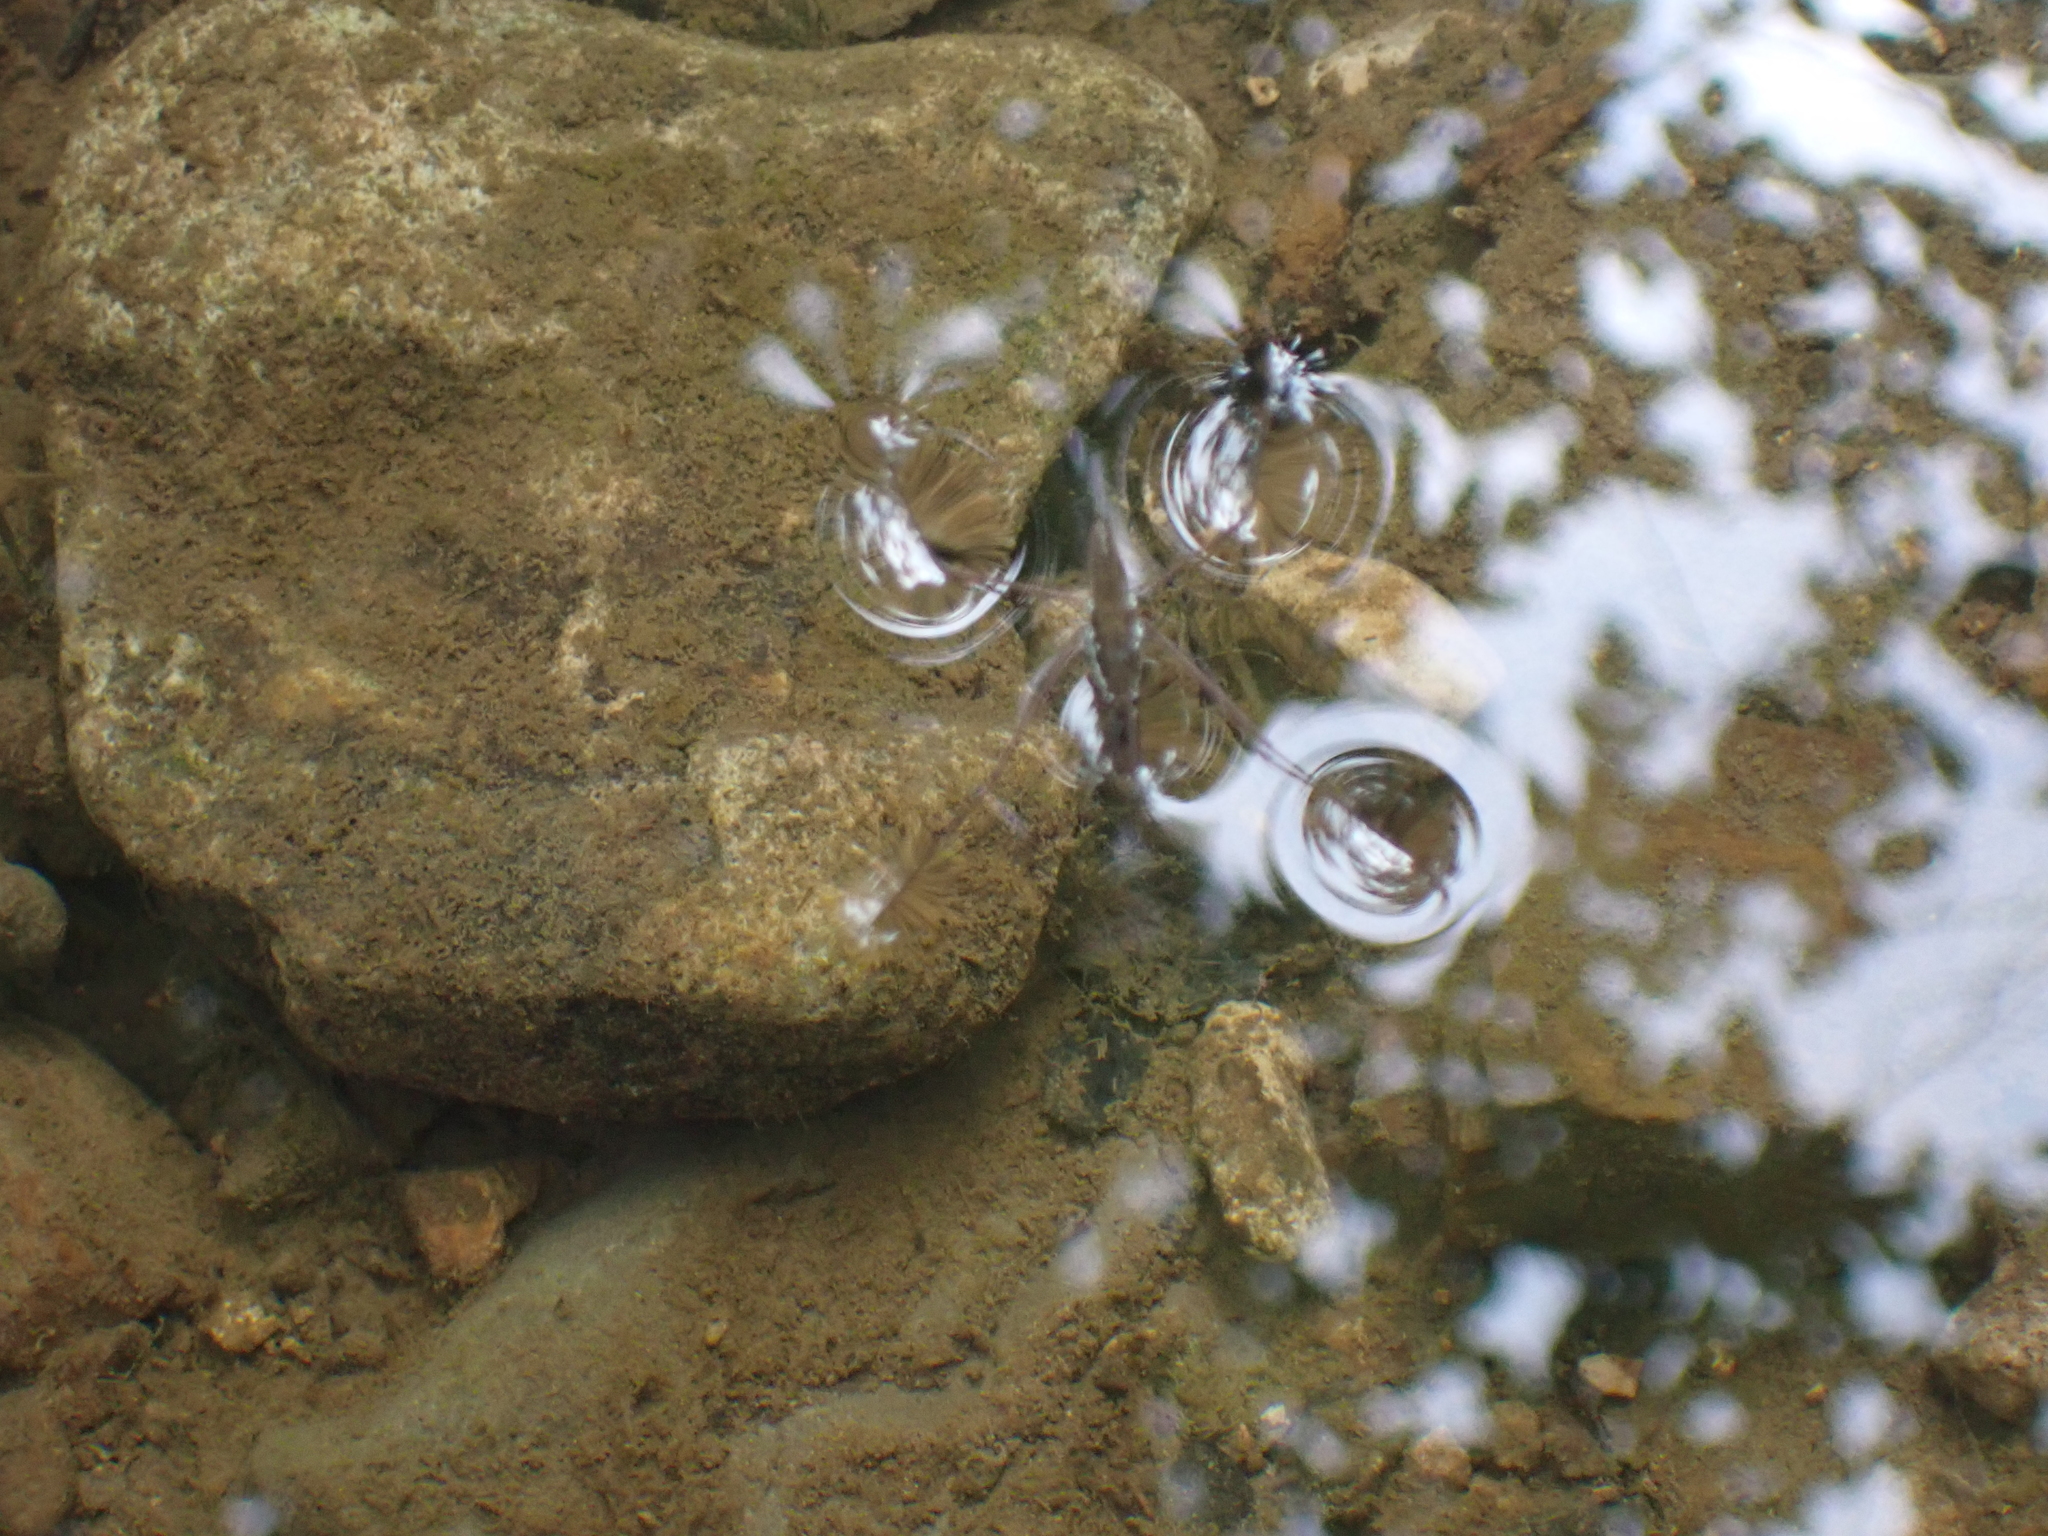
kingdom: Animalia
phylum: Arthropoda
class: Insecta
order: Hemiptera
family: Gerridae
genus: Aquarius
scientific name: Aquarius
